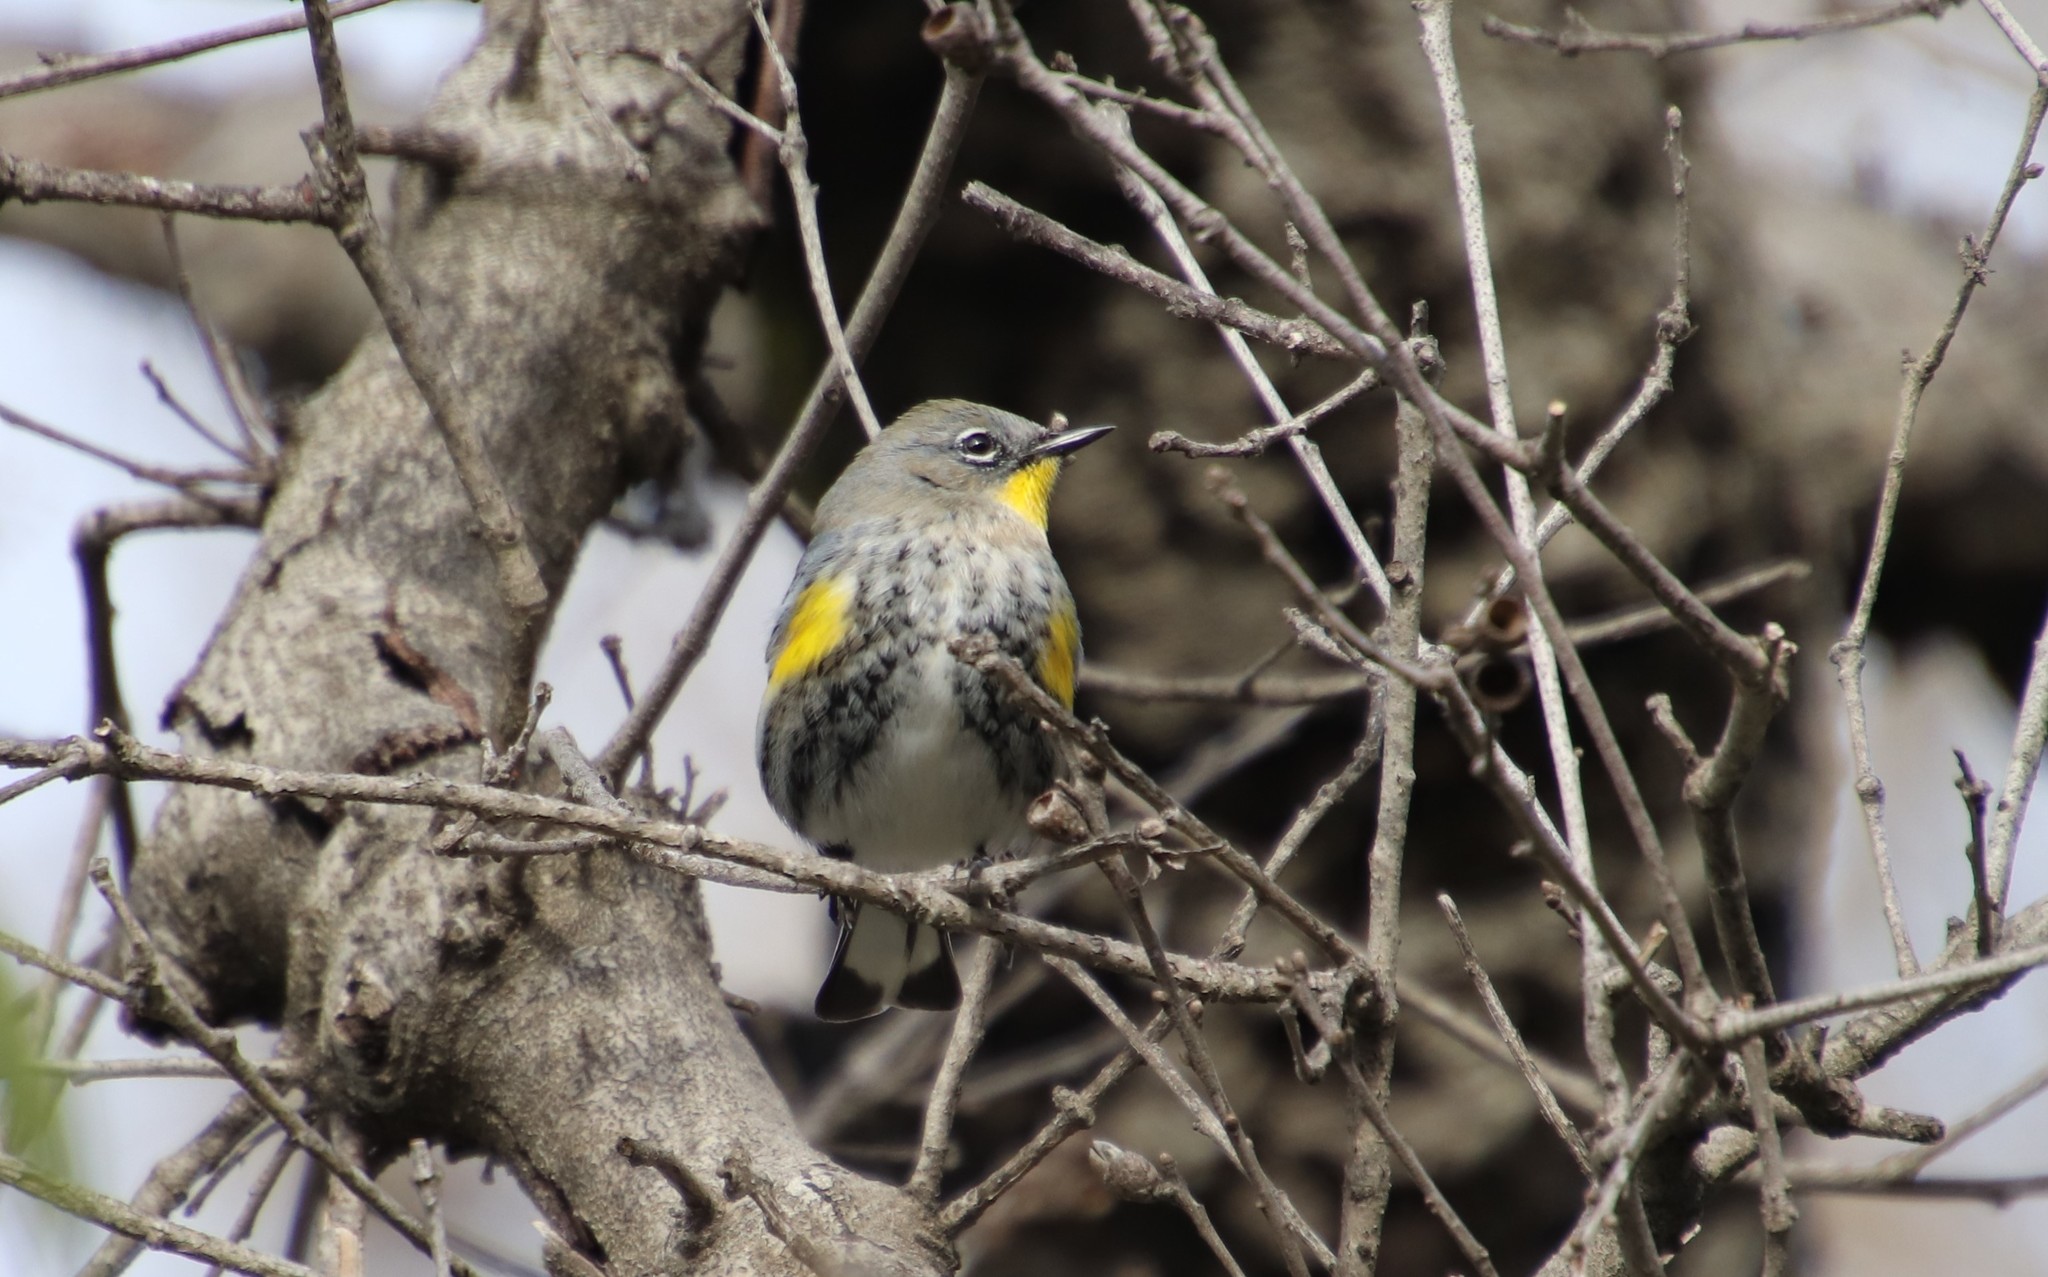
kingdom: Animalia
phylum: Chordata
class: Aves
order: Passeriformes
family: Parulidae
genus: Setophaga
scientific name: Setophaga auduboni
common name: Audubon's warbler
